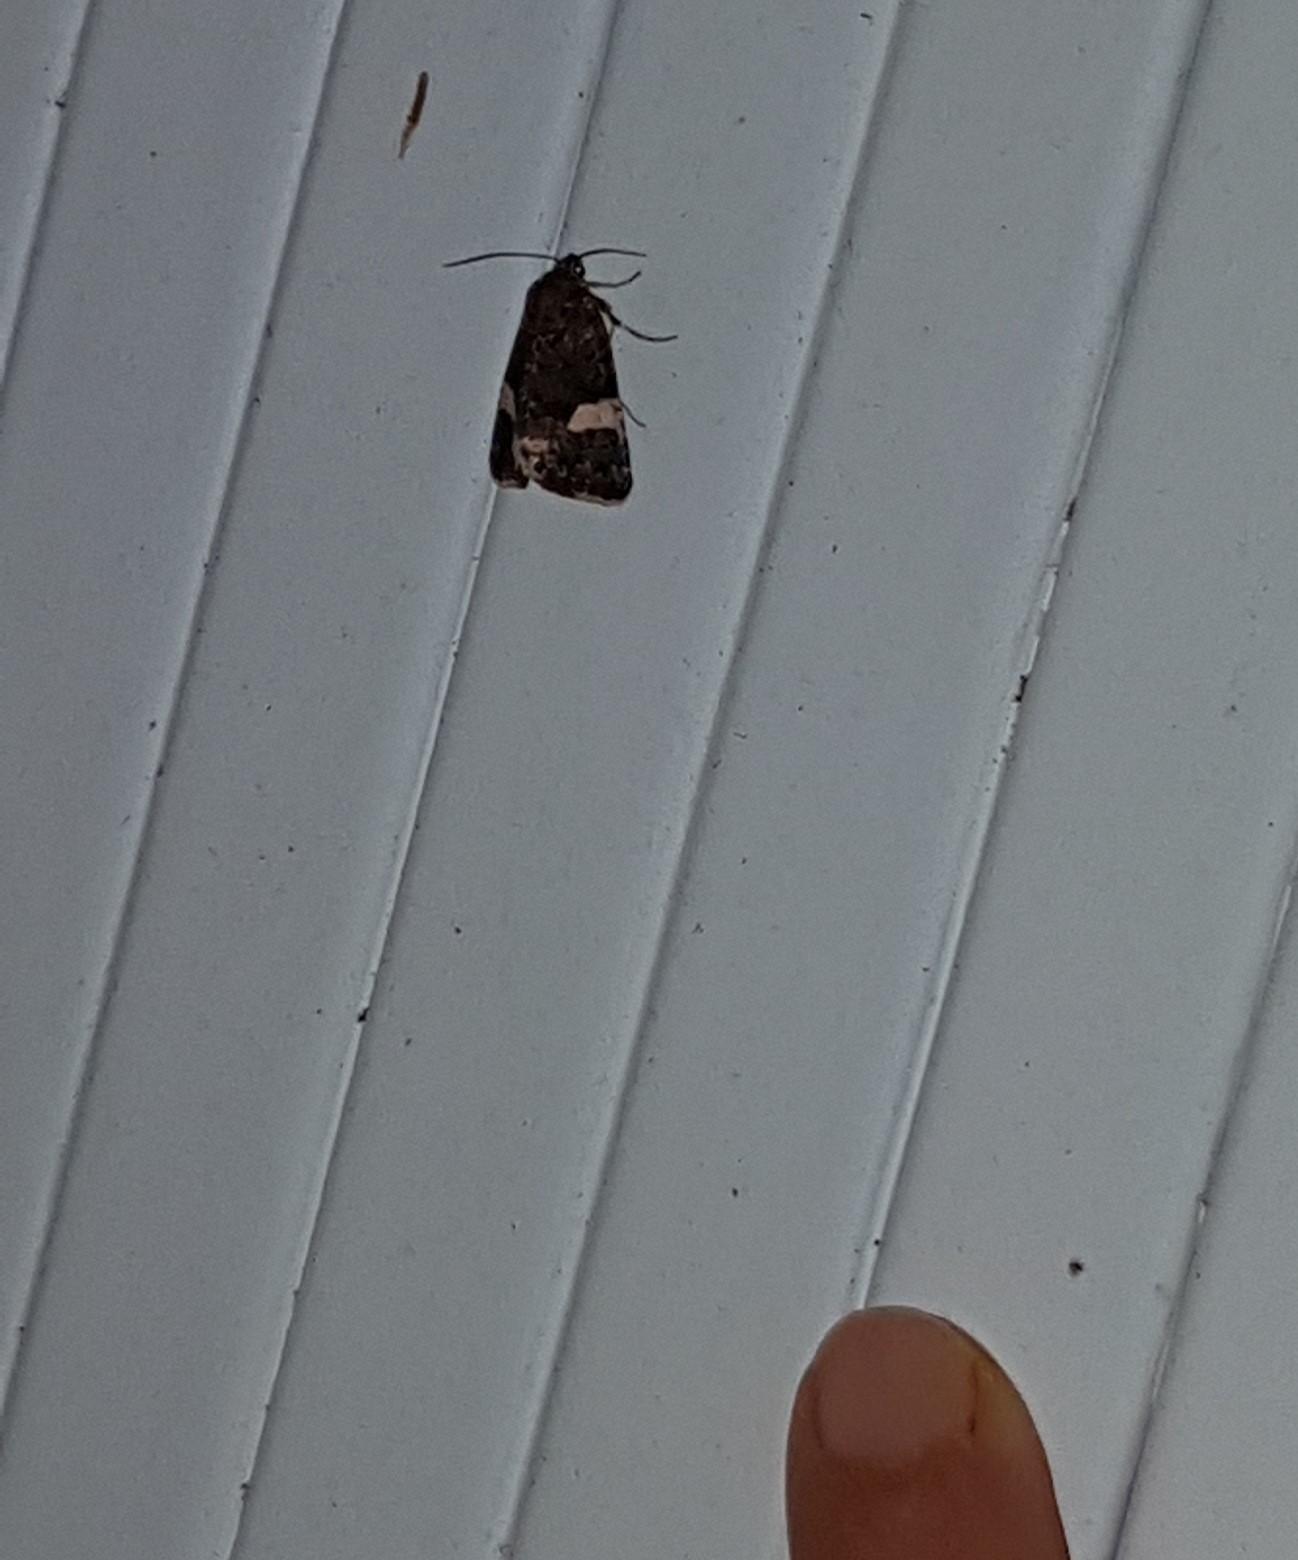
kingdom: Animalia
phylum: Arthropoda
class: Insecta
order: Lepidoptera
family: Erebidae
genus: Tyta
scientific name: Tyta luctuosa
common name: Four-spotted
